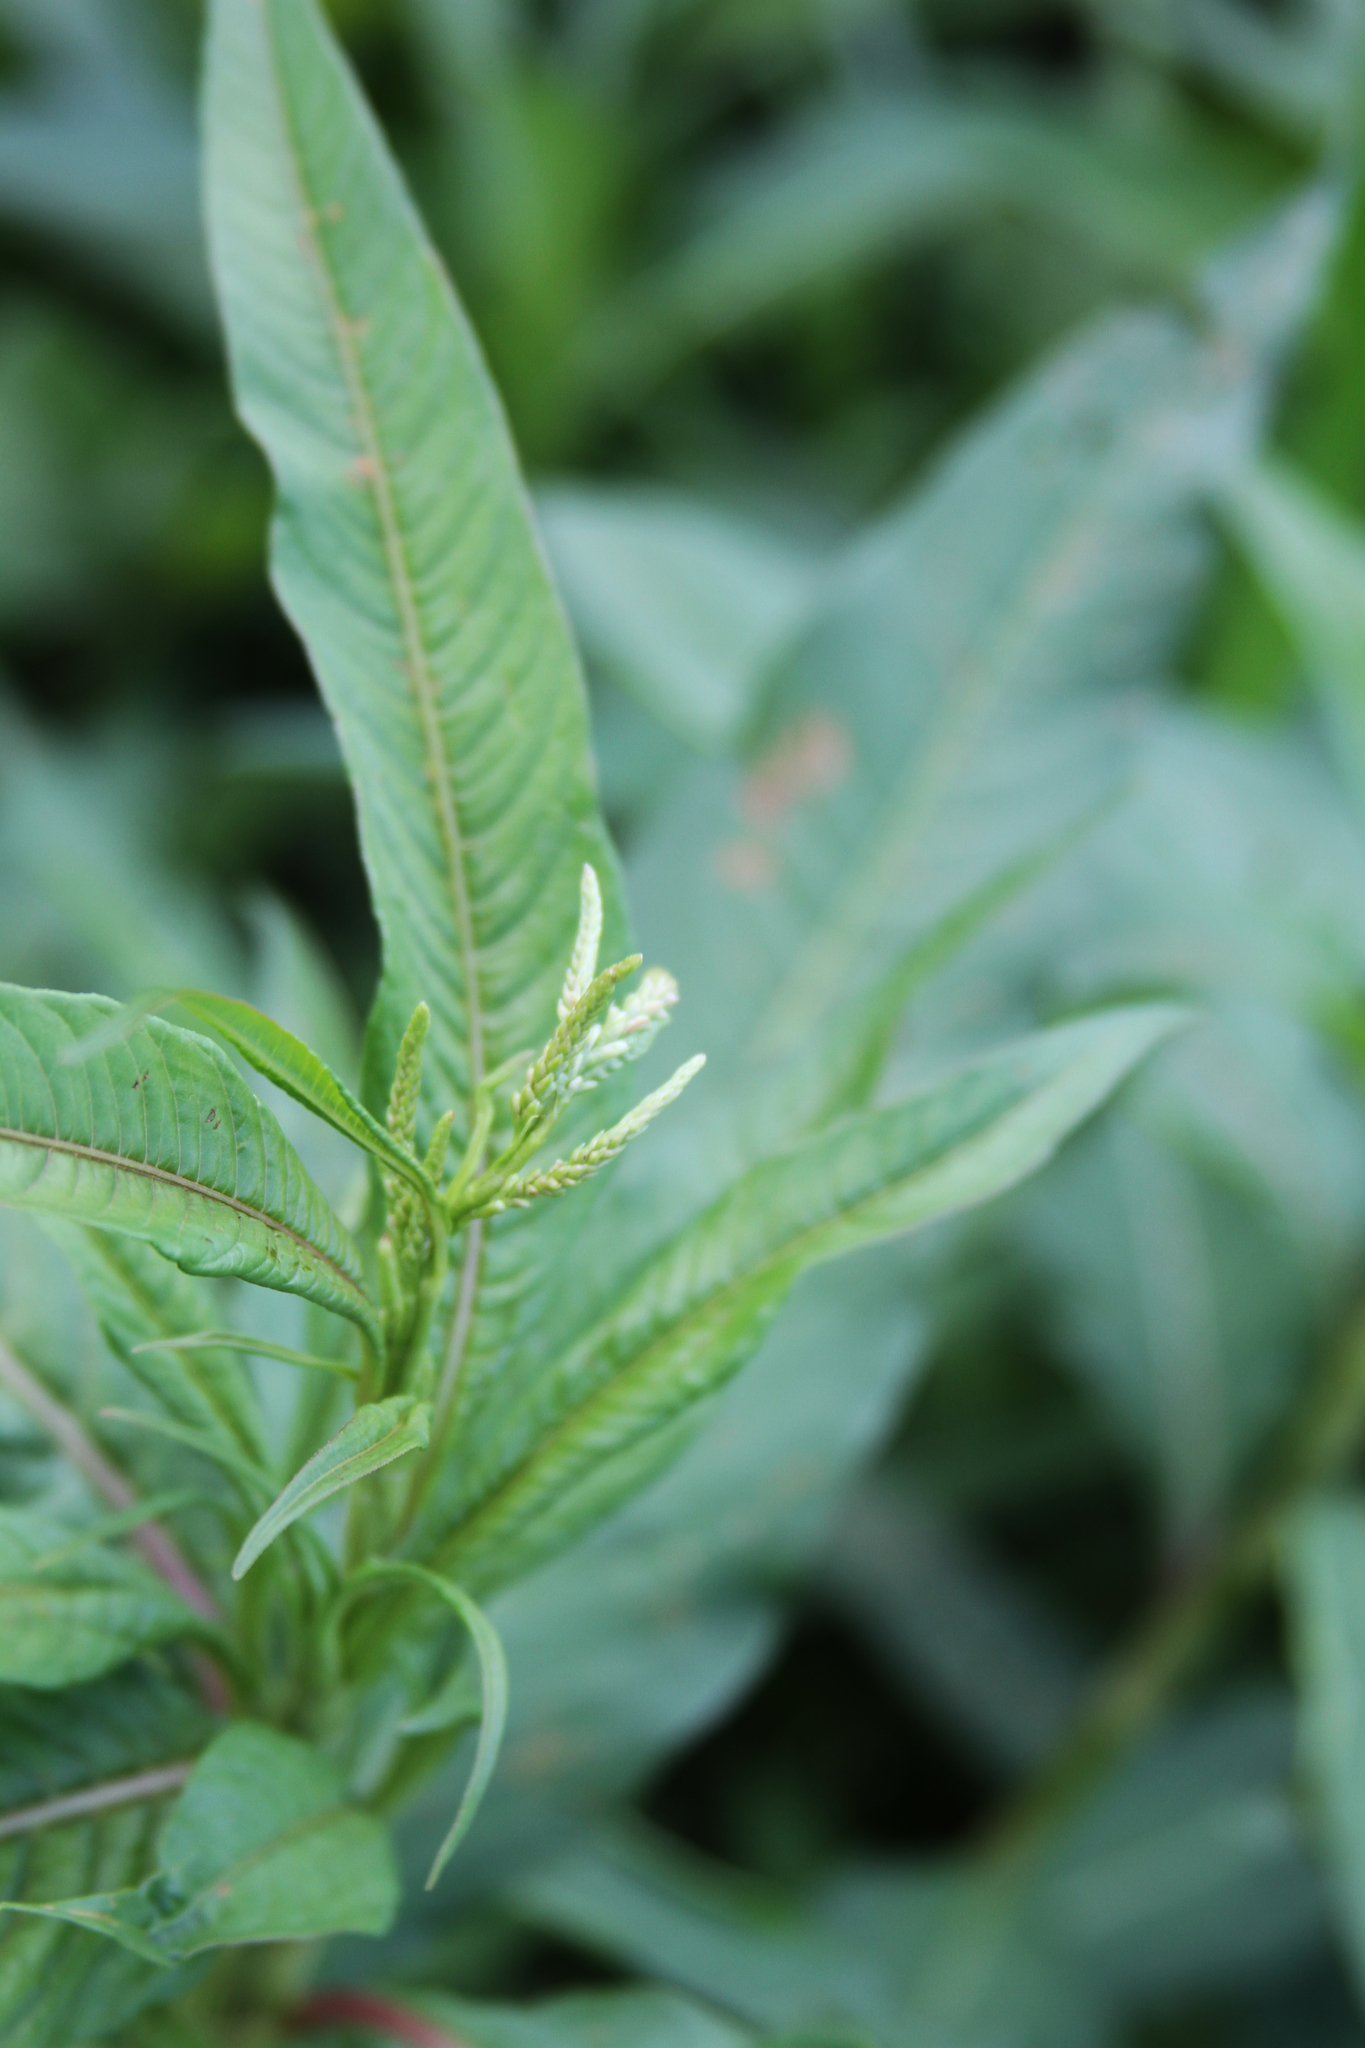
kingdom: Plantae
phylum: Tracheophyta
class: Magnoliopsida
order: Caryophyllales
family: Polygonaceae
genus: Persicaria
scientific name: Persicaria lapathifolia
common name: Curlytop knotweed
